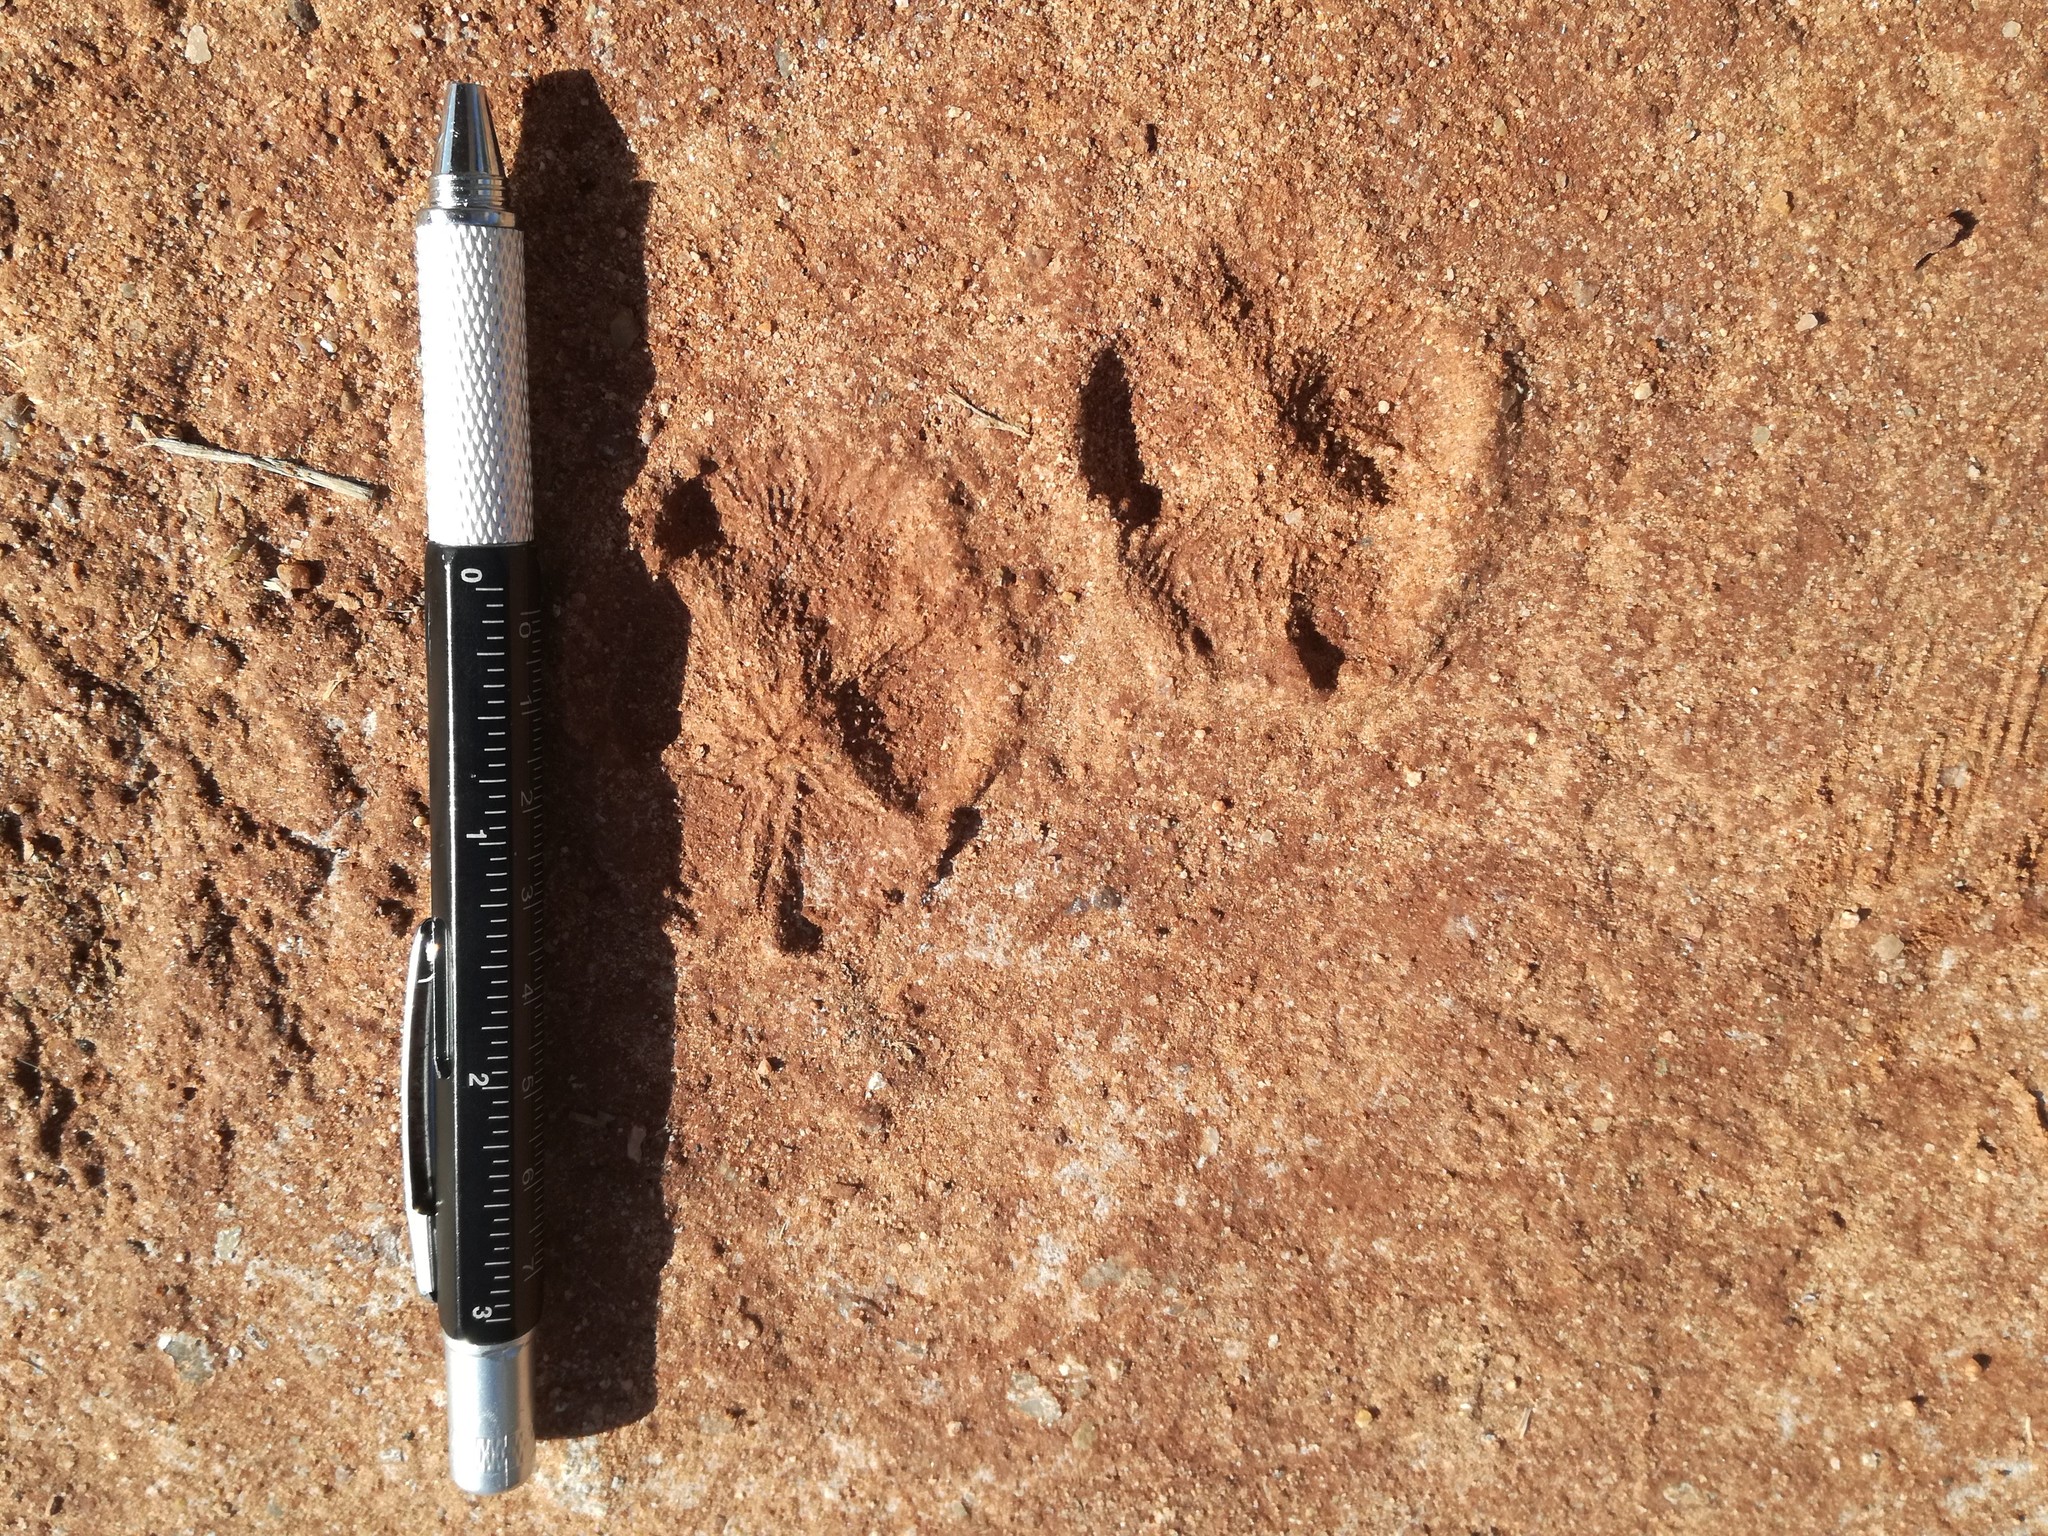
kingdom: Animalia
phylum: Chordata
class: Mammalia
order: Carnivora
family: Canidae
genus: Vulpes
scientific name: Vulpes vulpes
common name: Red fox
